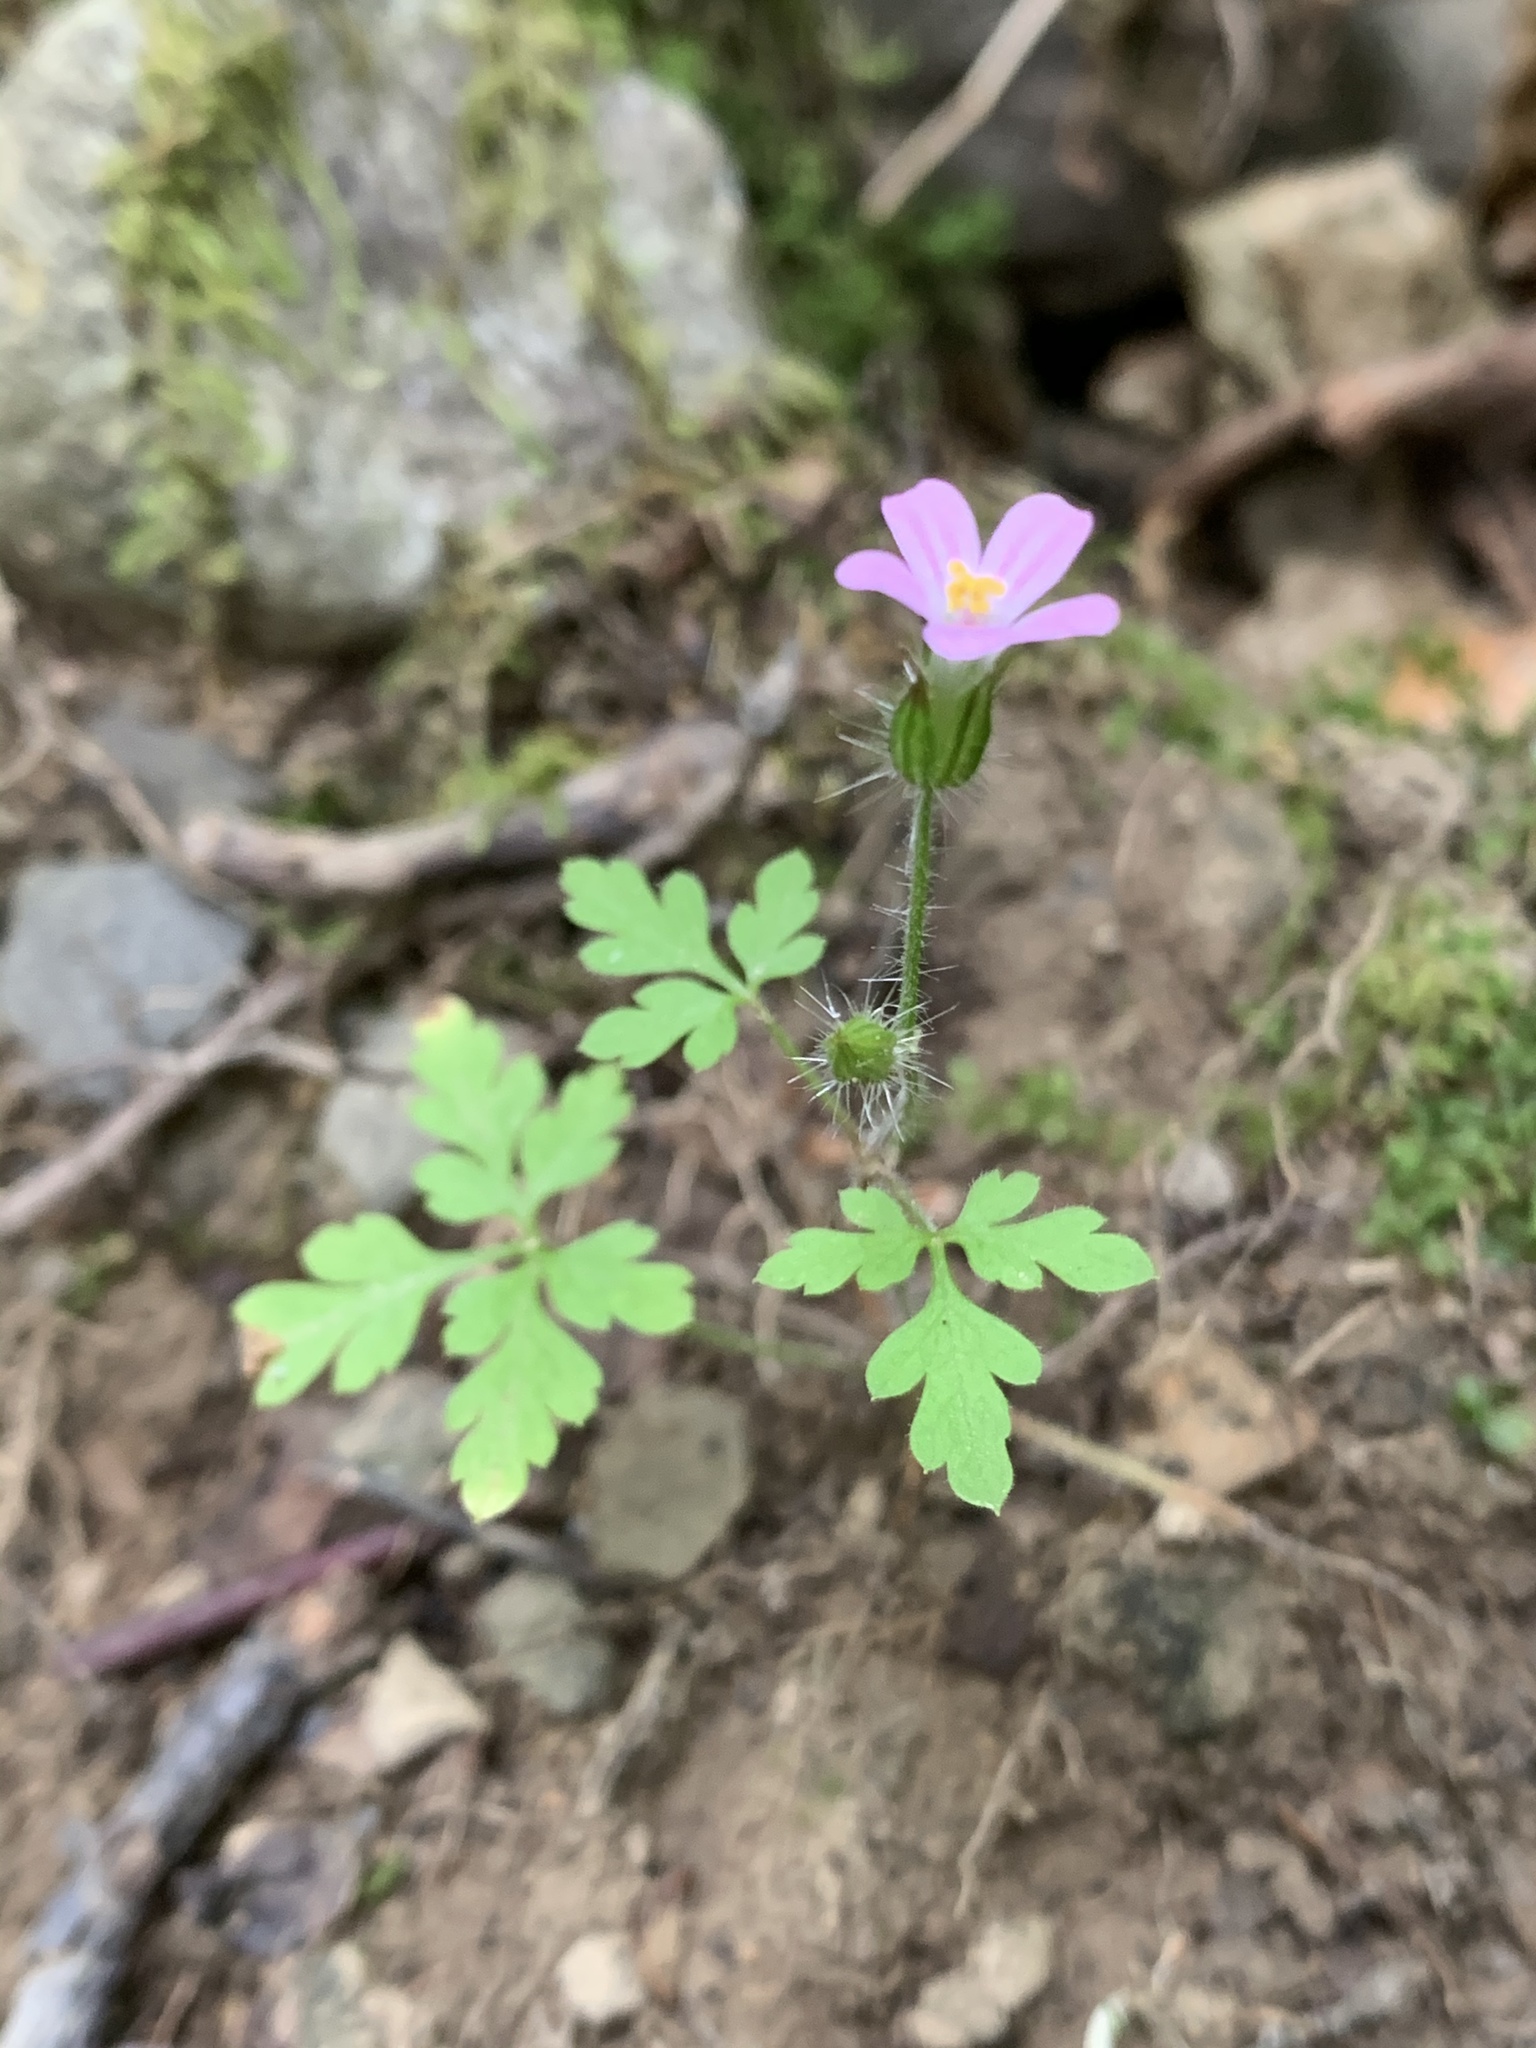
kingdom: Plantae
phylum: Tracheophyta
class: Magnoliopsida
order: Geraniales
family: Geraniaceae
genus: Geranium
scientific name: Geranium robertianum
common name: Herb-robert
